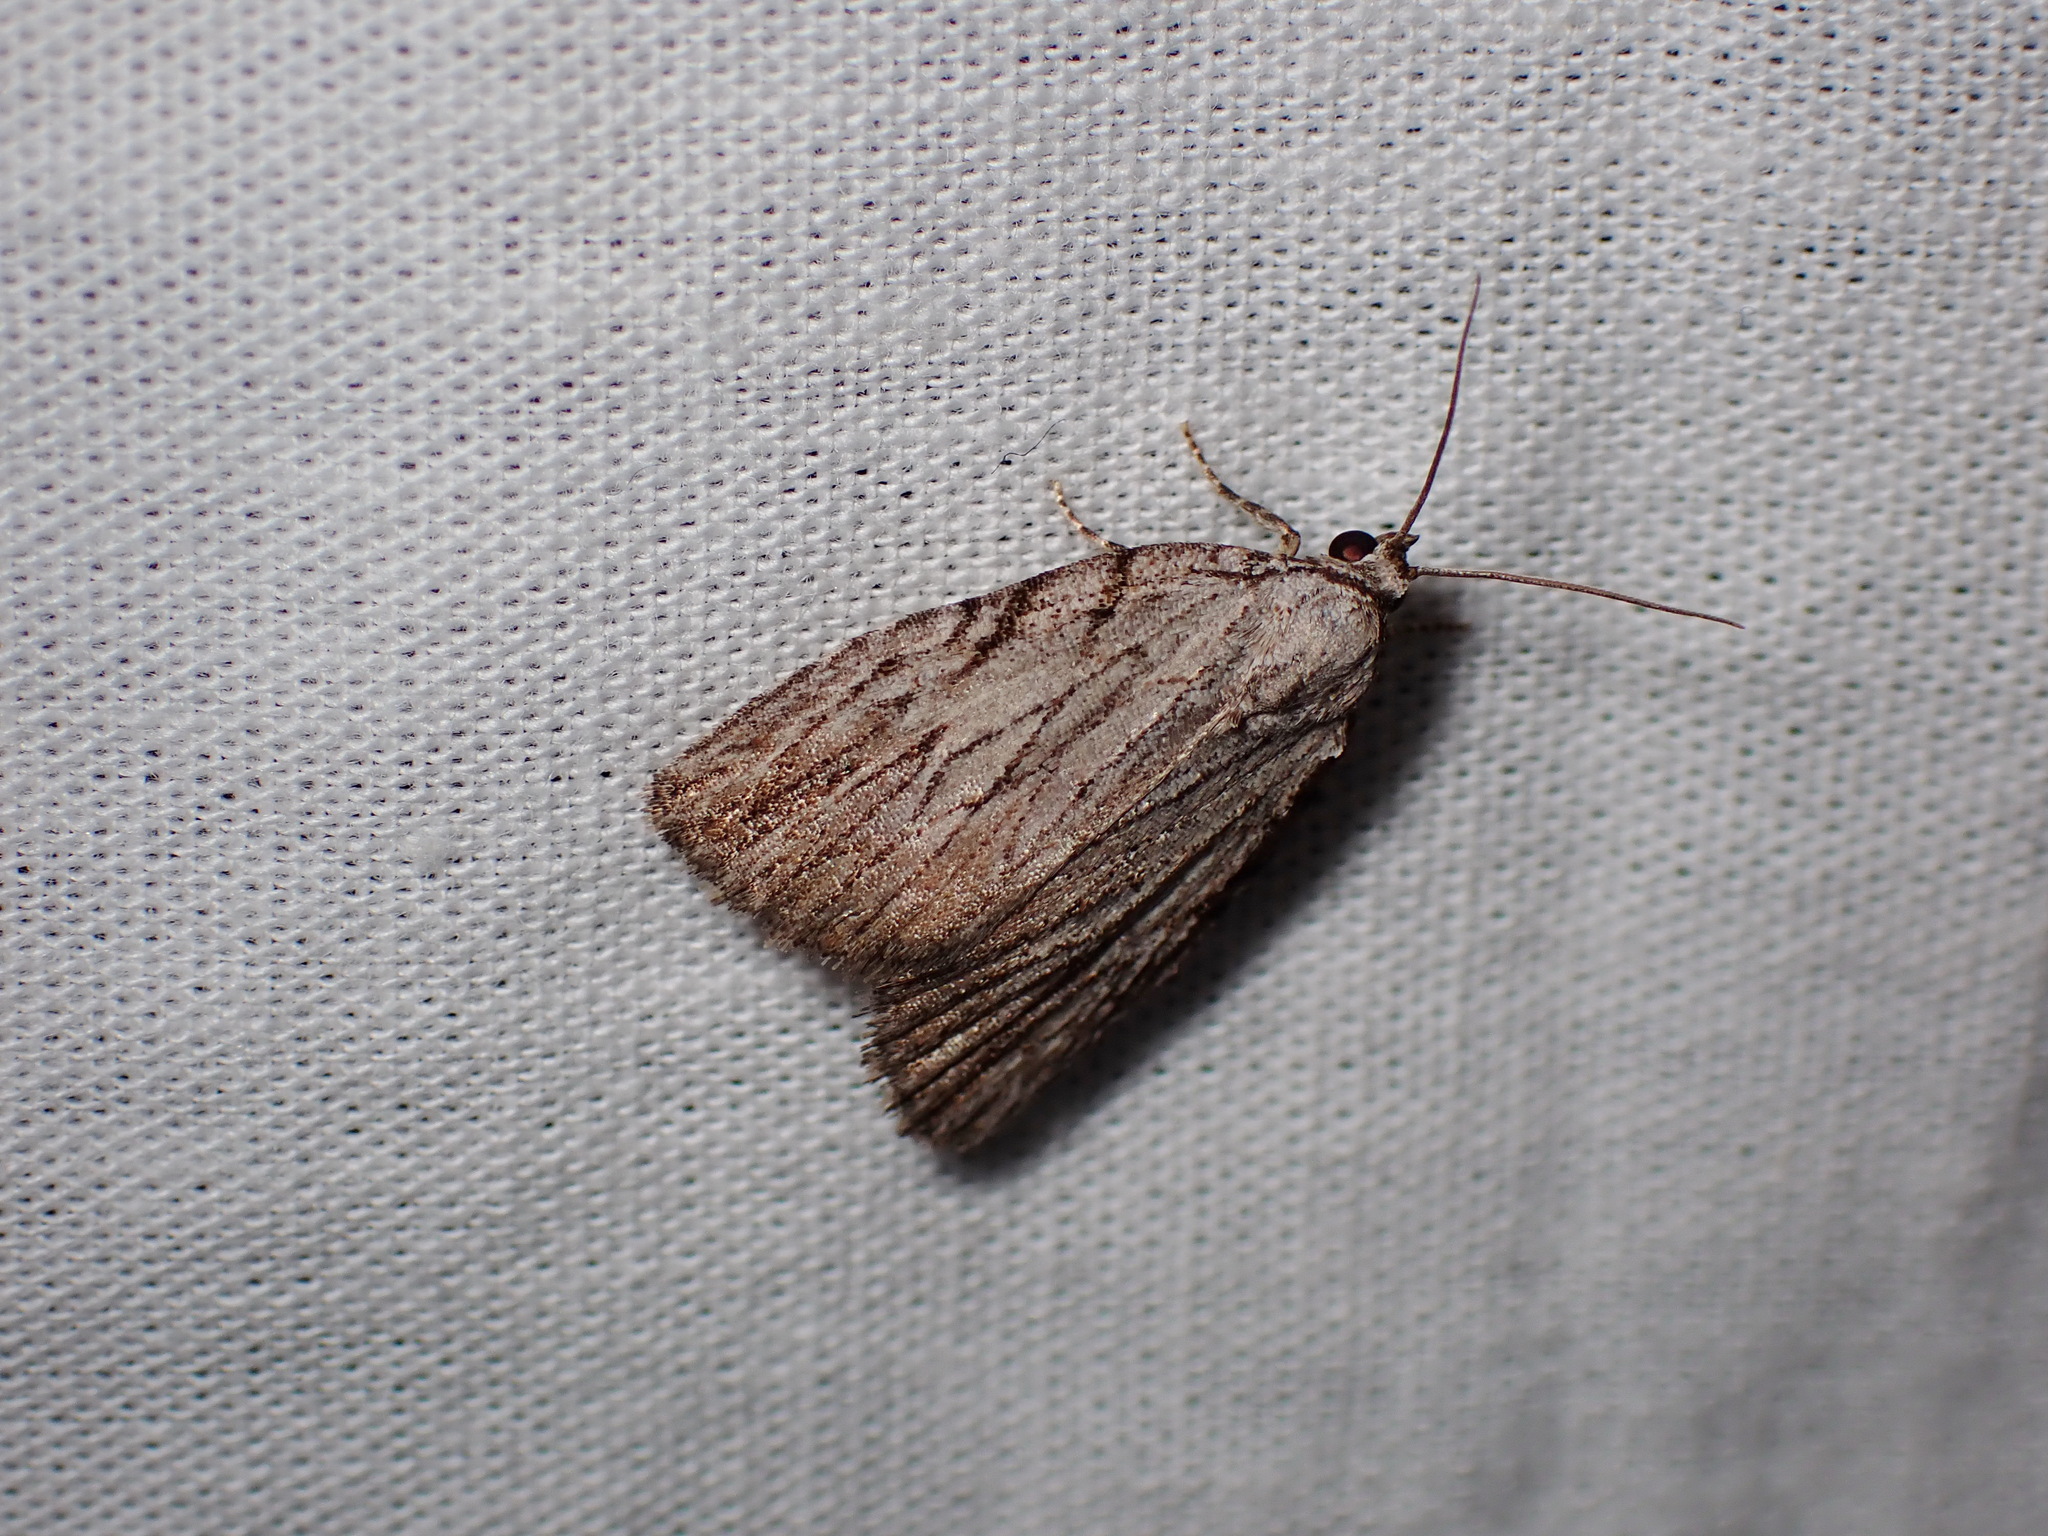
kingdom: Animalia
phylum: Arthropoda
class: Insecta
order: Lepidoptera
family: Noctuidae
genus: Balsa
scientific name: Balsa tristrigella
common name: Three-lined balsa moth
